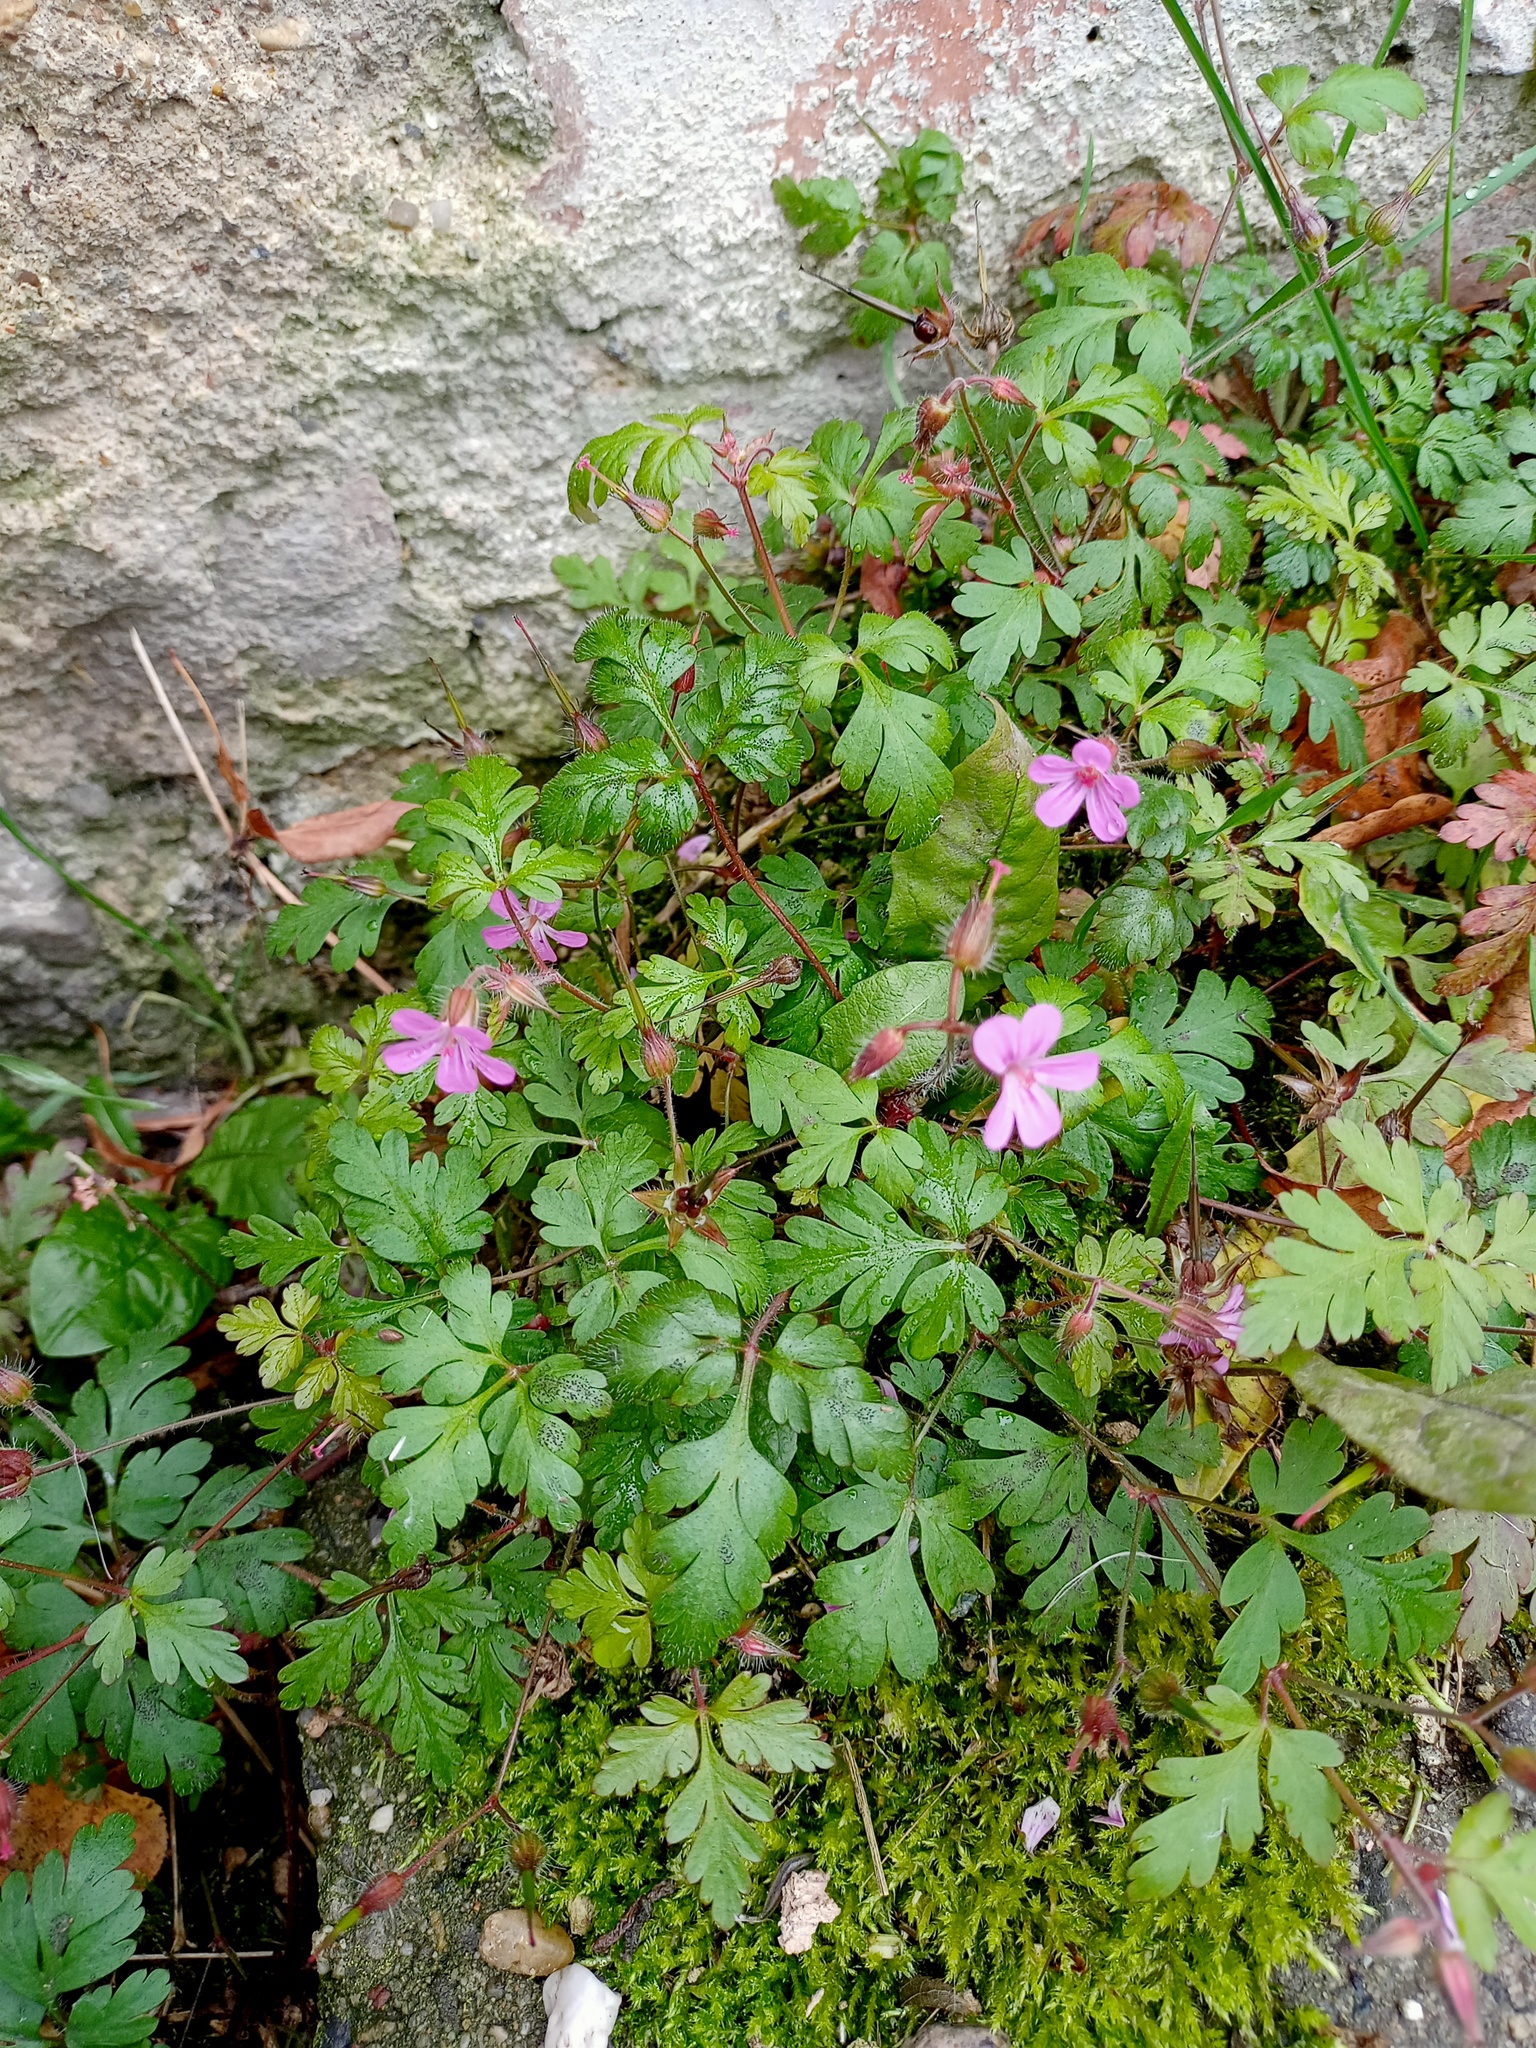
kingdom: Plantae
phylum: Tracheophyta
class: Magnoliopsida
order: Geraniales
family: Geraniaceae
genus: Geranium
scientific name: Geranium robertianum
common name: Herb-robert
